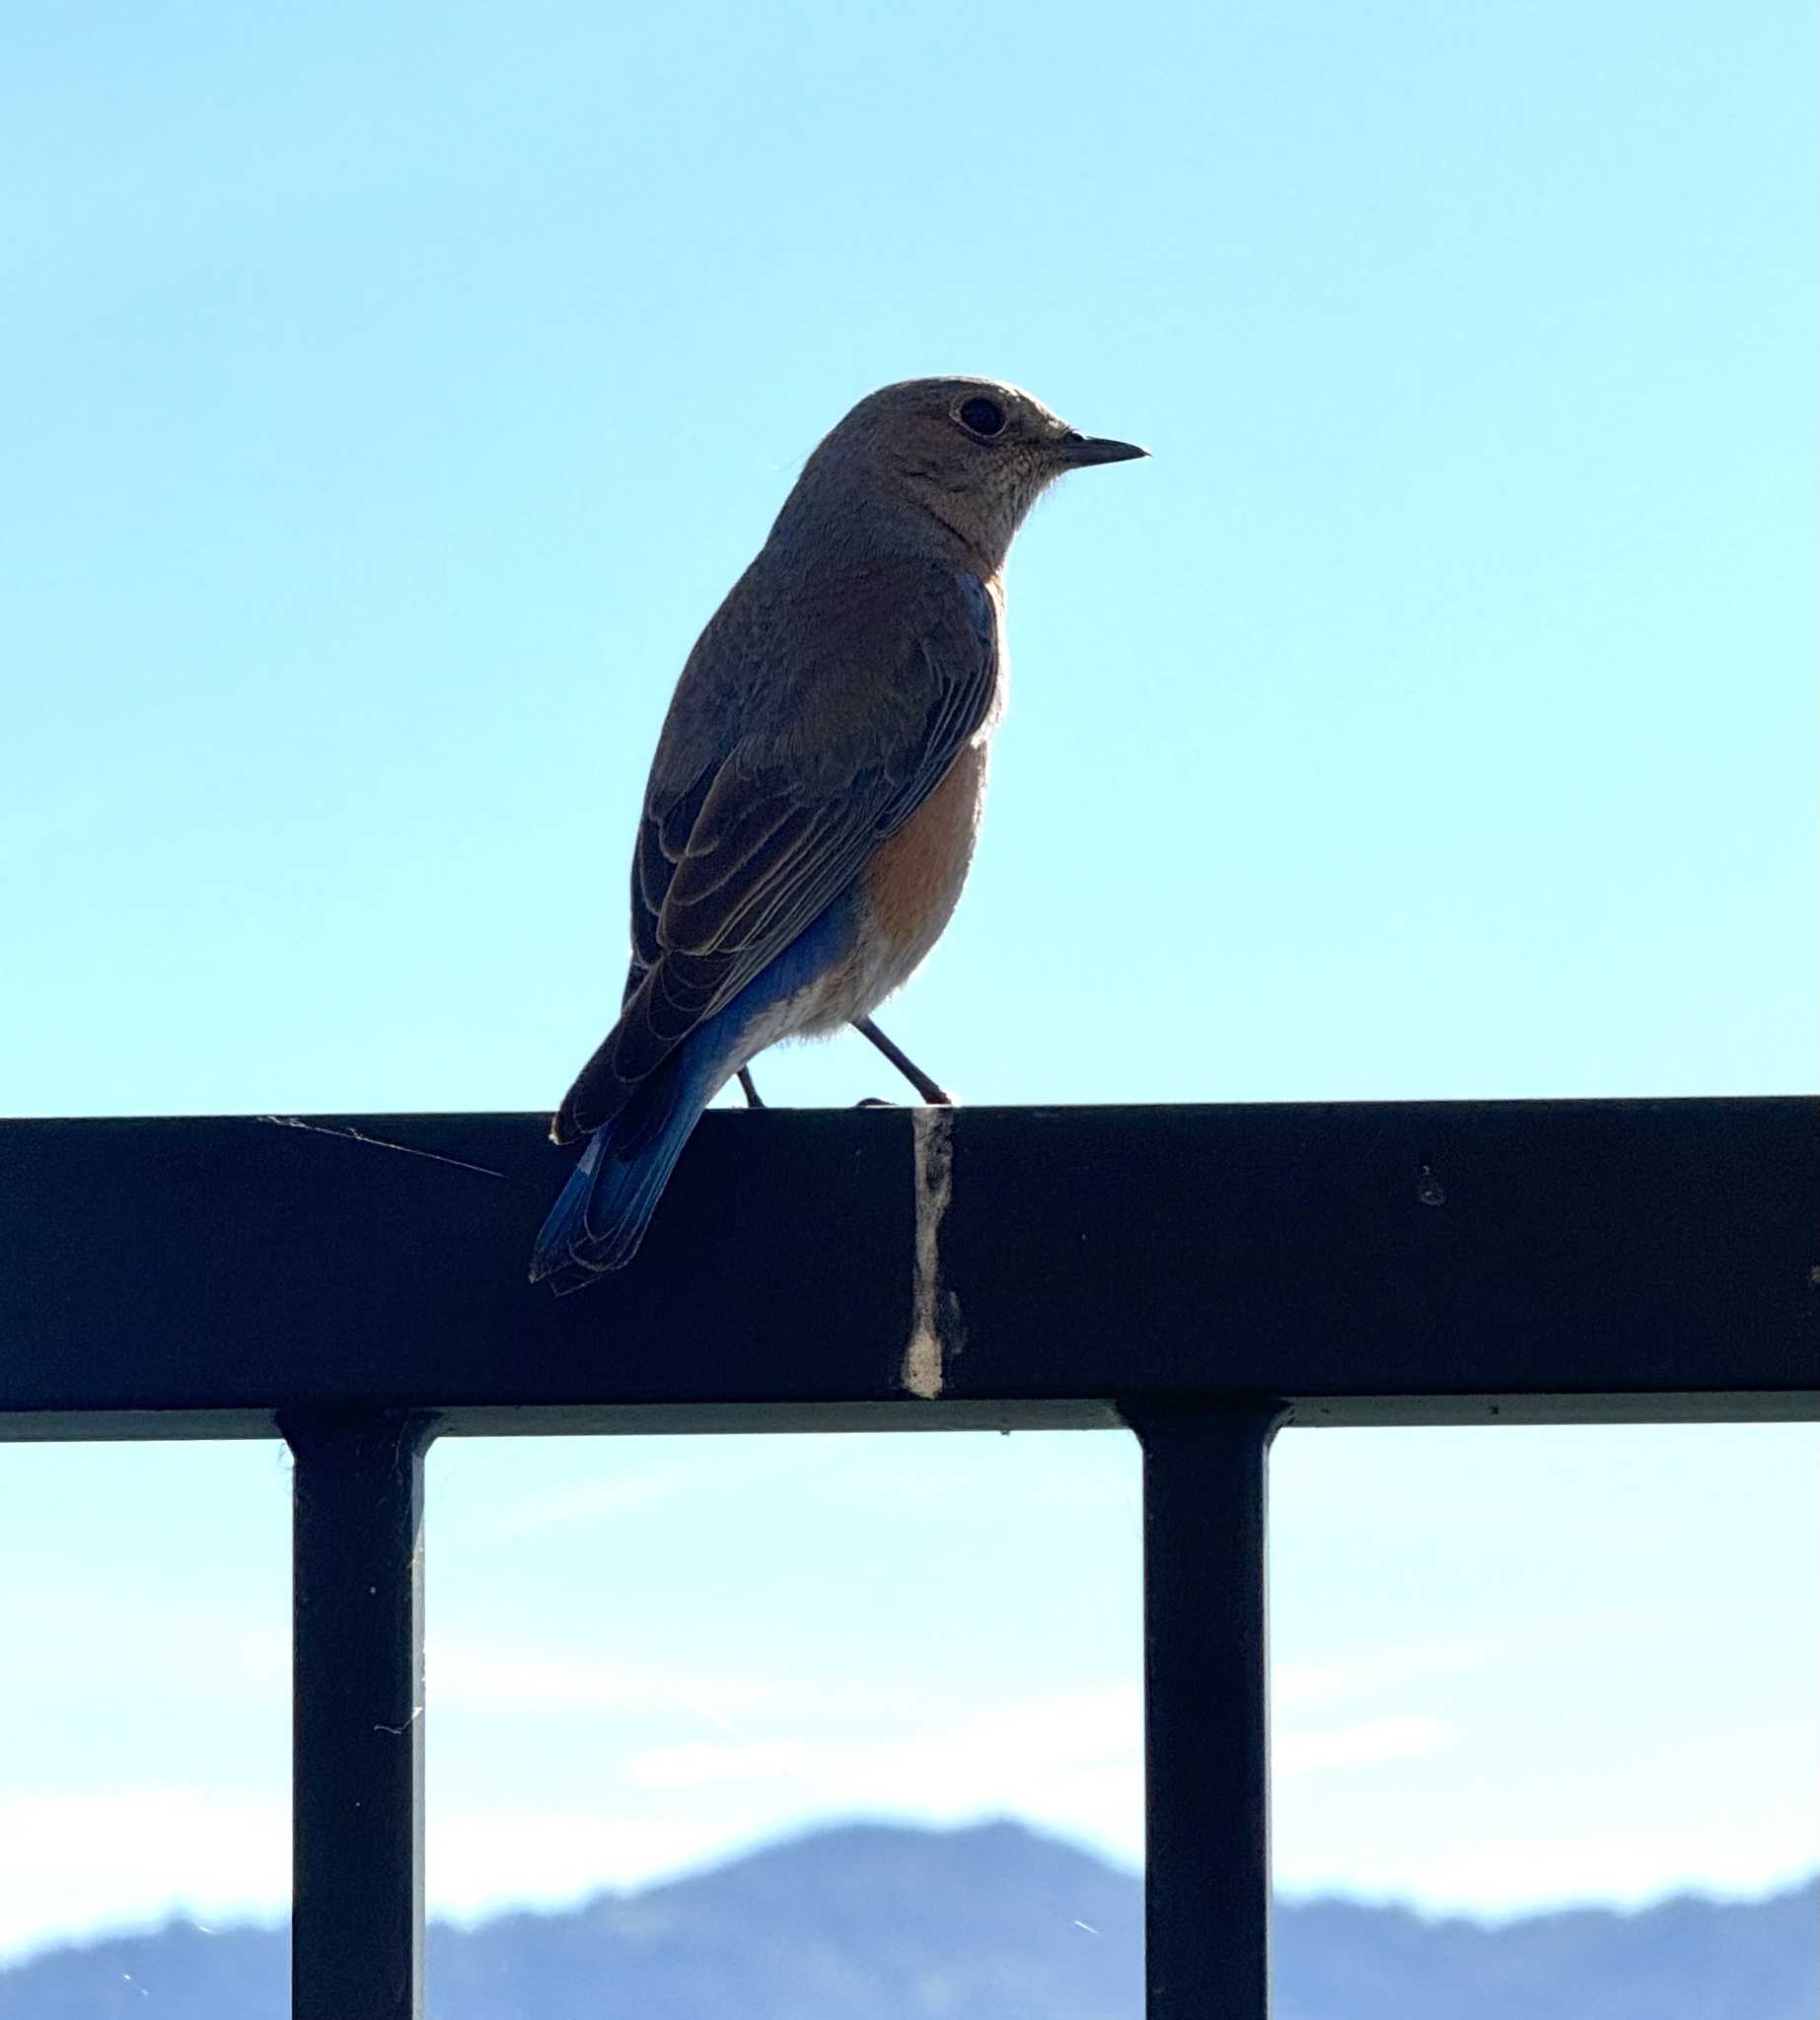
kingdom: Animalia
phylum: Chordata
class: Aves
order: Passeriformes
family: Turdidae
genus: Sialia
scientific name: Sialia mexicana
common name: Western bluebird
